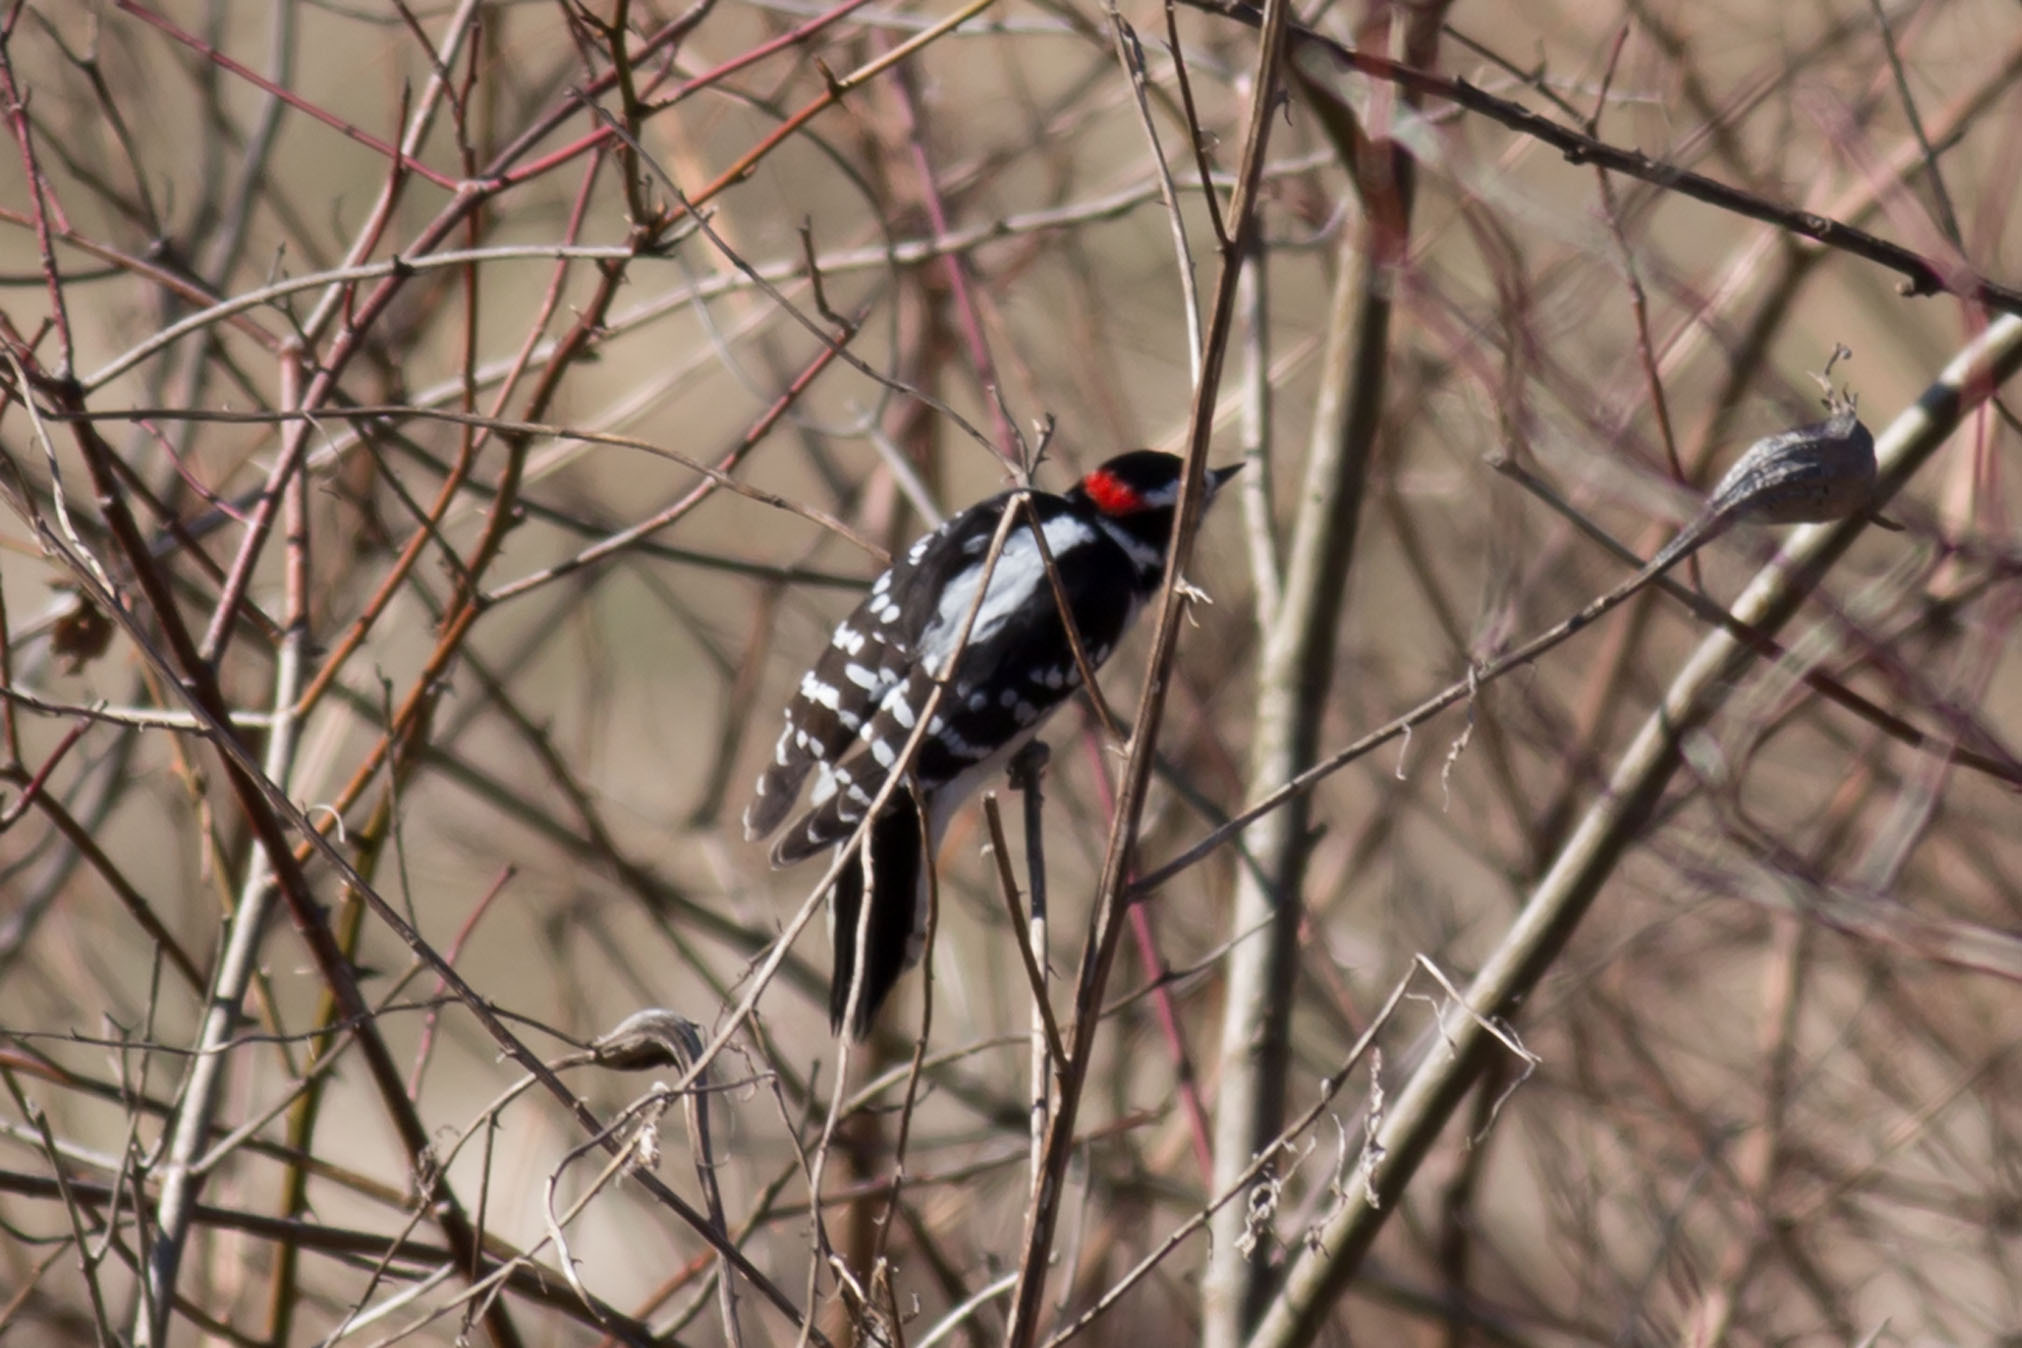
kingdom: Animalia
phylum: Chordata
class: Aves
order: Piciformes
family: Picidae
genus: Dryobates
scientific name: Dryobates pubescens
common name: Downy woodpecker
